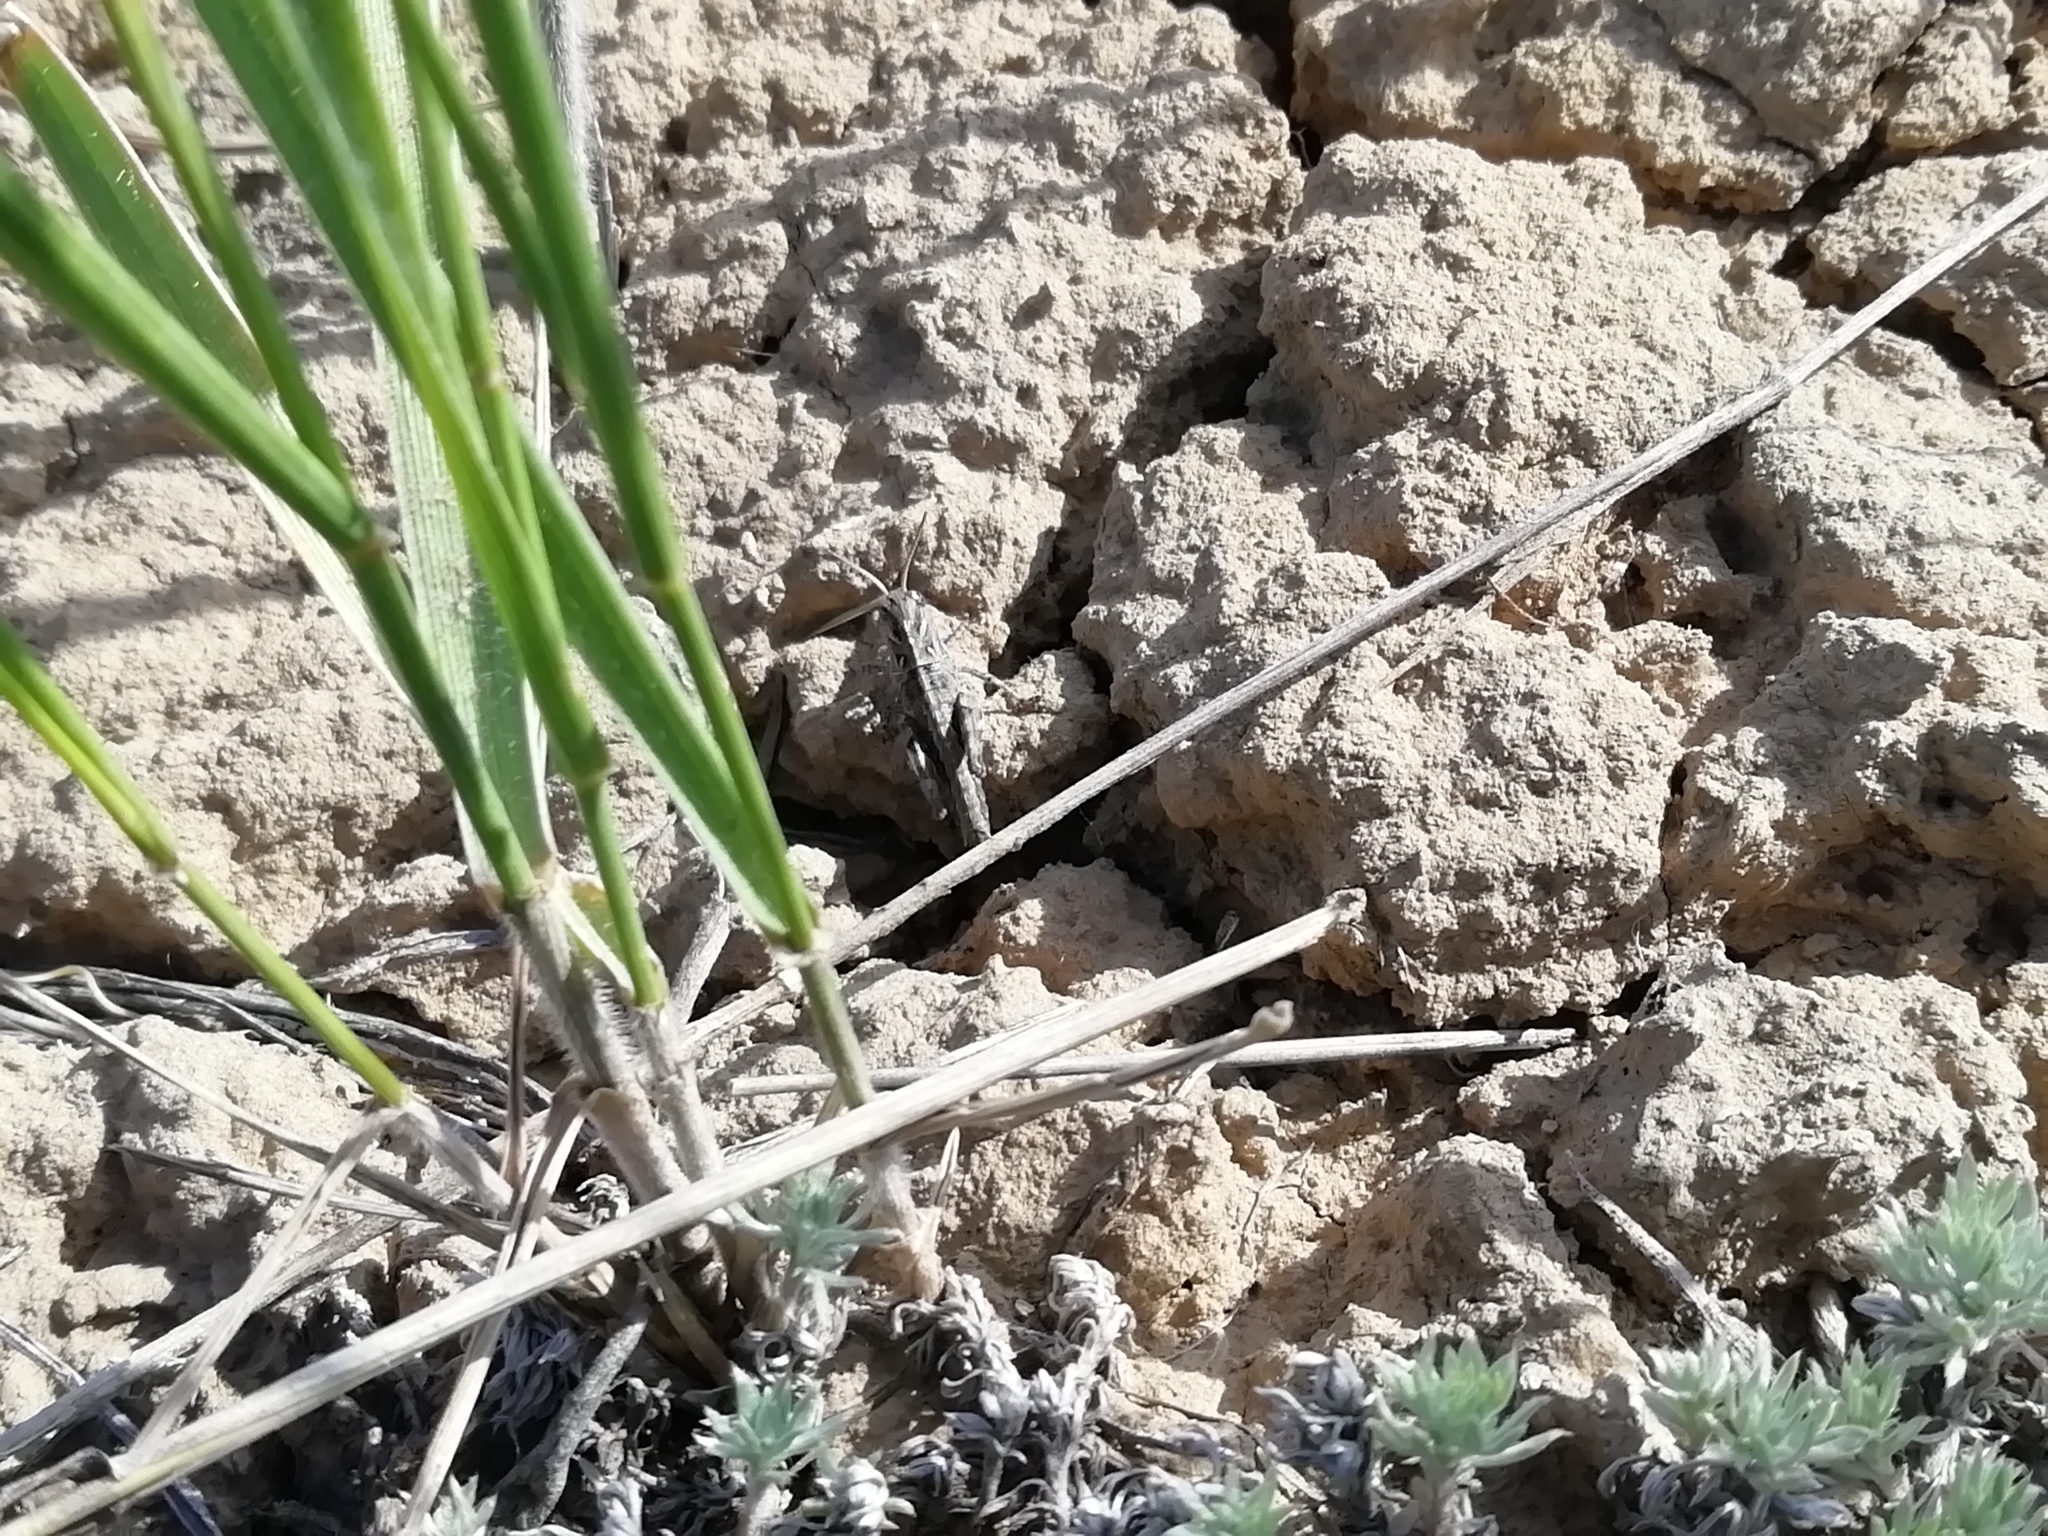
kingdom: Animalia
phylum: Arthropoda
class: Insecta
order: Orthoptera
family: Acrididae
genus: Oedaleus
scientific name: Oedaleus decorus
